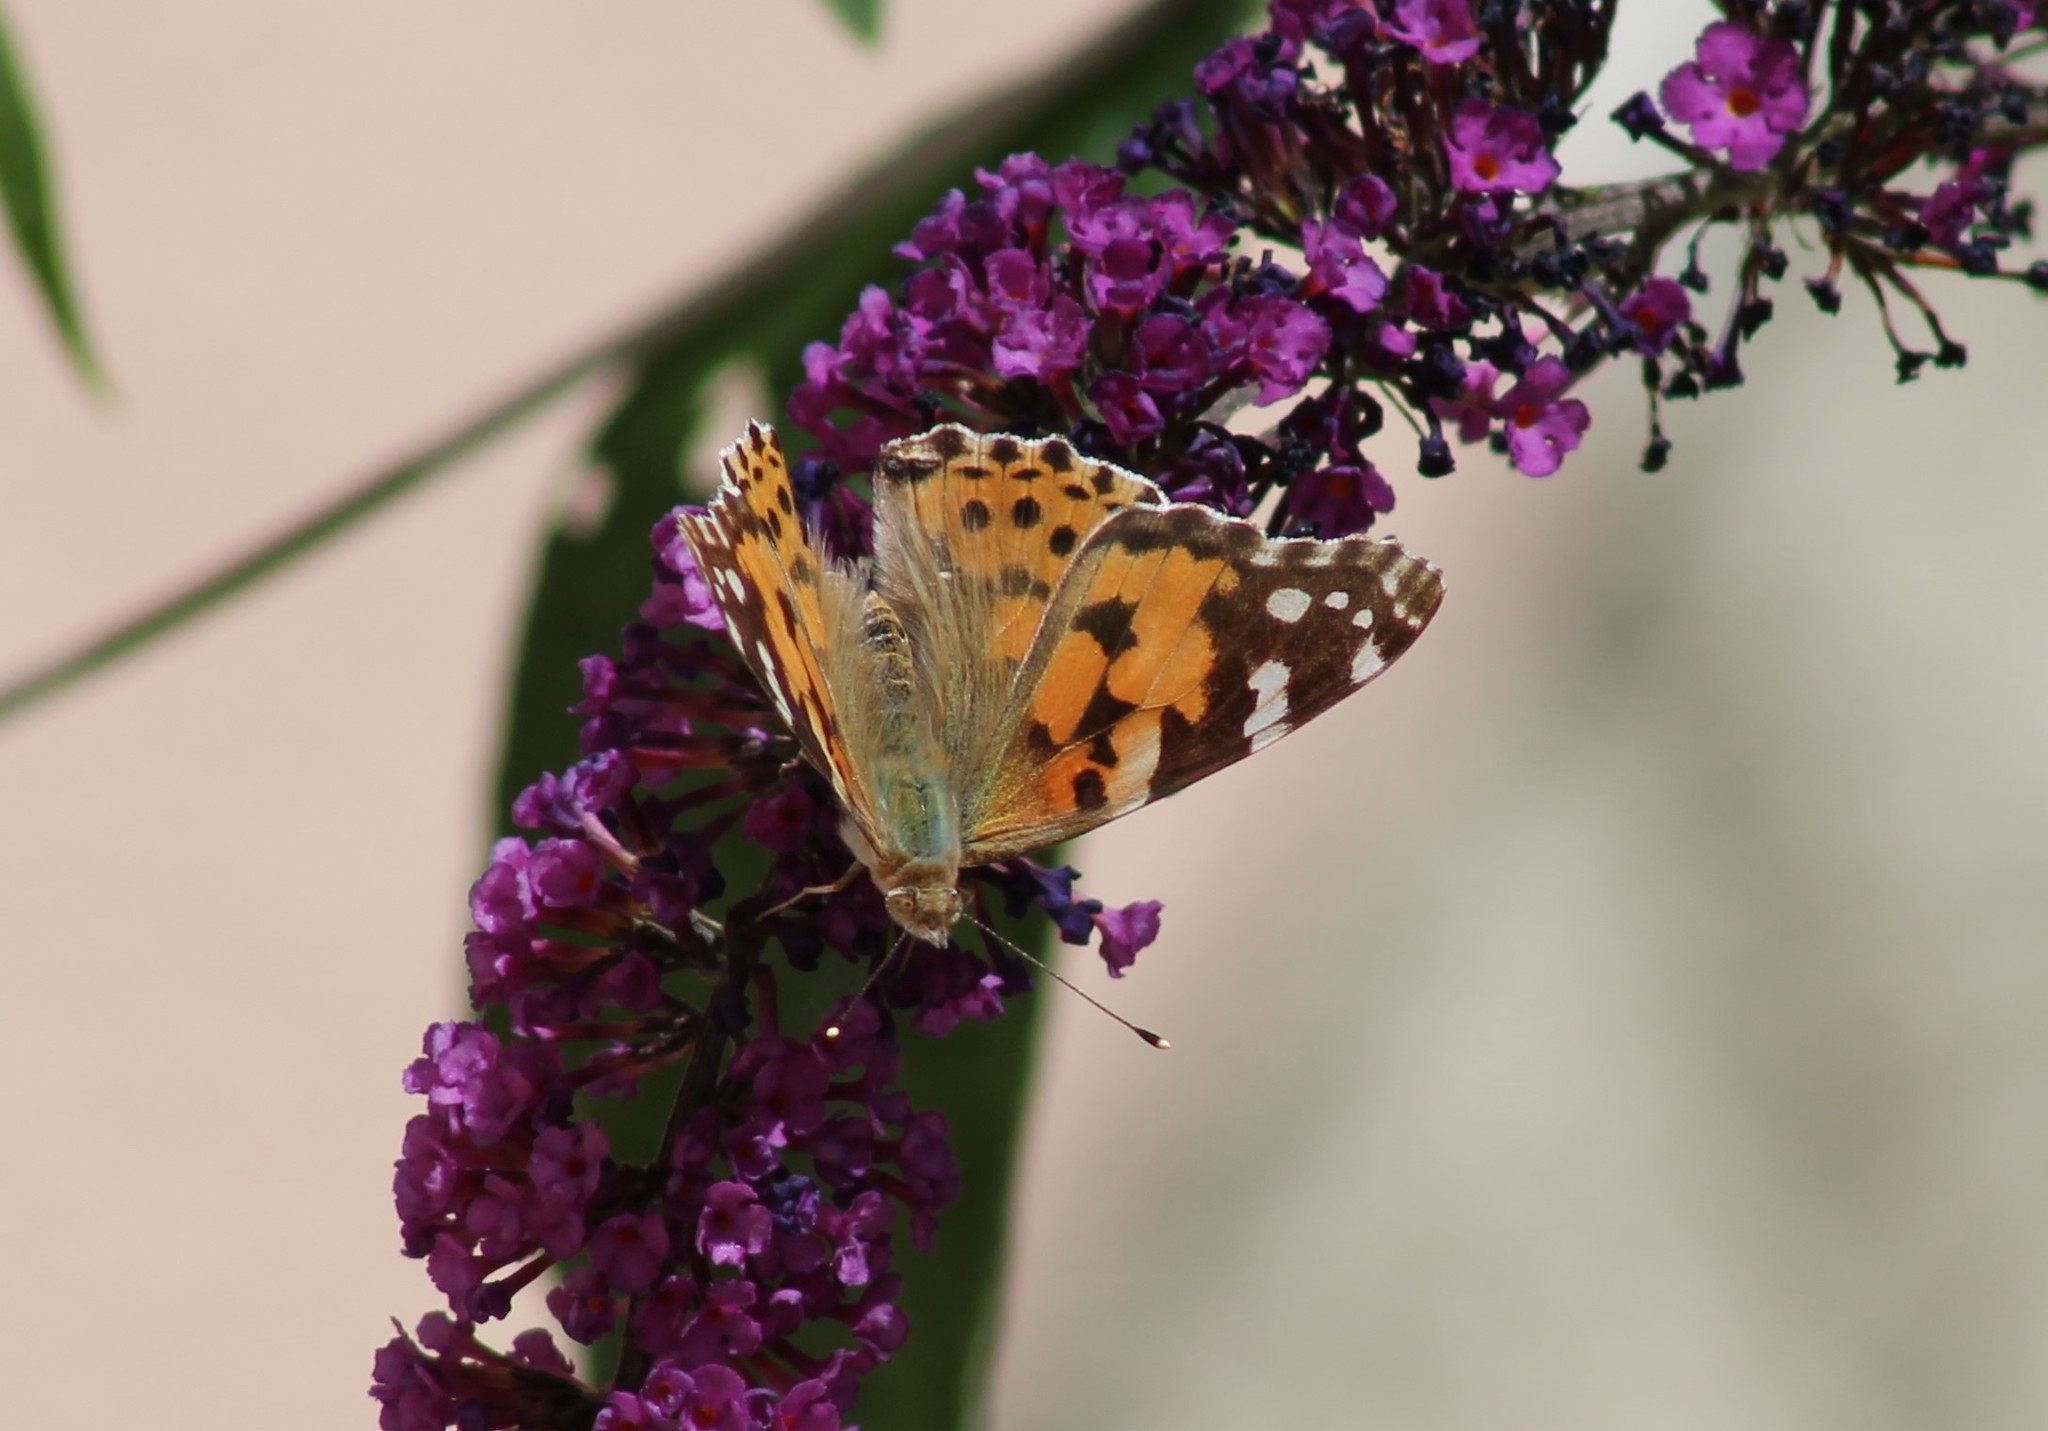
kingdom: Animalia
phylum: Arthropoda
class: Insecta
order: Lepidoptera
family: Nymphalidae
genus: Vanessa
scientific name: Vanessa cardui
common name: Painted lady
